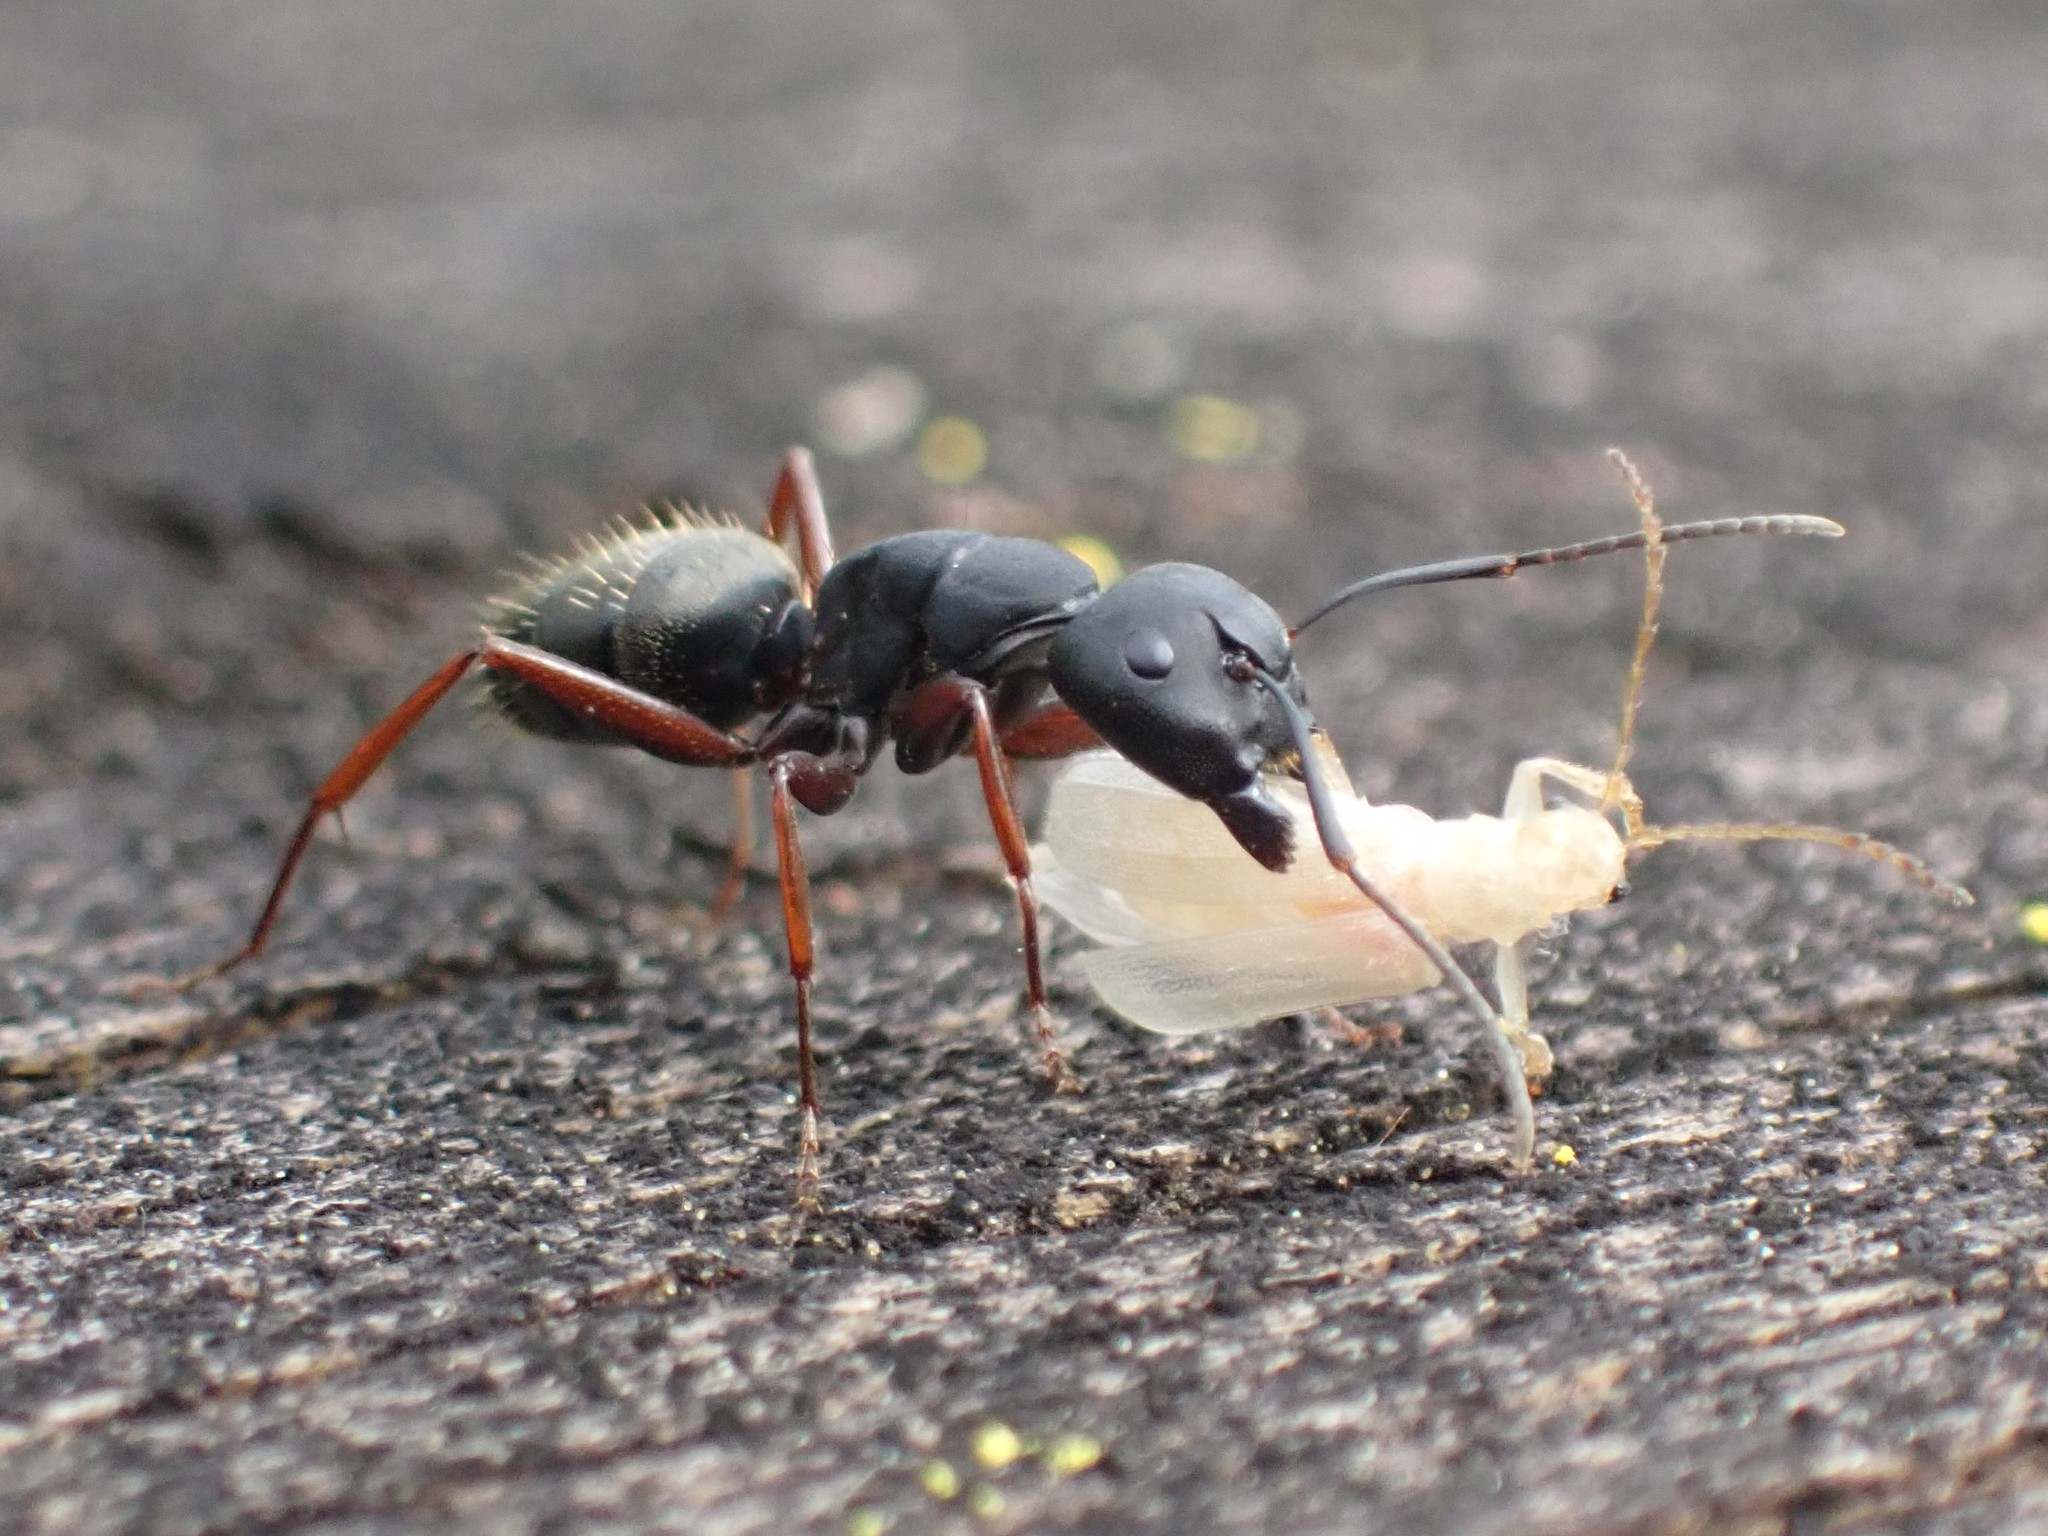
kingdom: Animalia
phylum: Arthropoda
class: Insecta
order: Hymenoptera
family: Formicidae
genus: Camponotus
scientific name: Camponotus modoc
